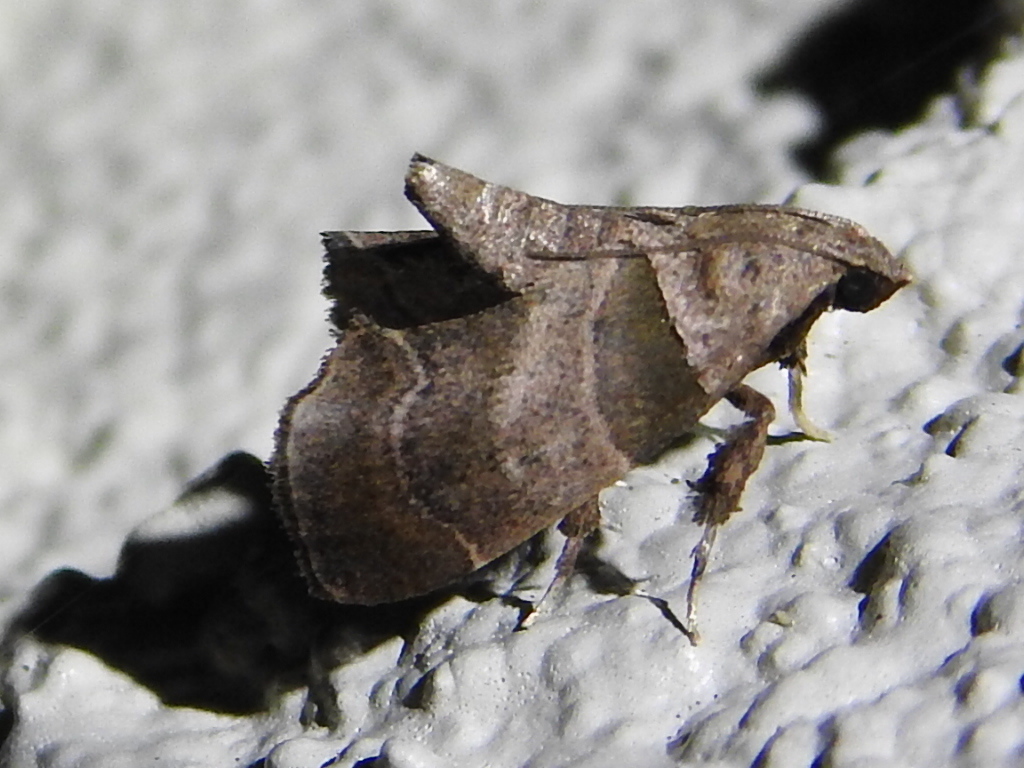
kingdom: Animalia
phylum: Arthropoda
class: Insecta
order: Lepidoptera
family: Pyralidae
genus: Tosale
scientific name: Tosale aucta
